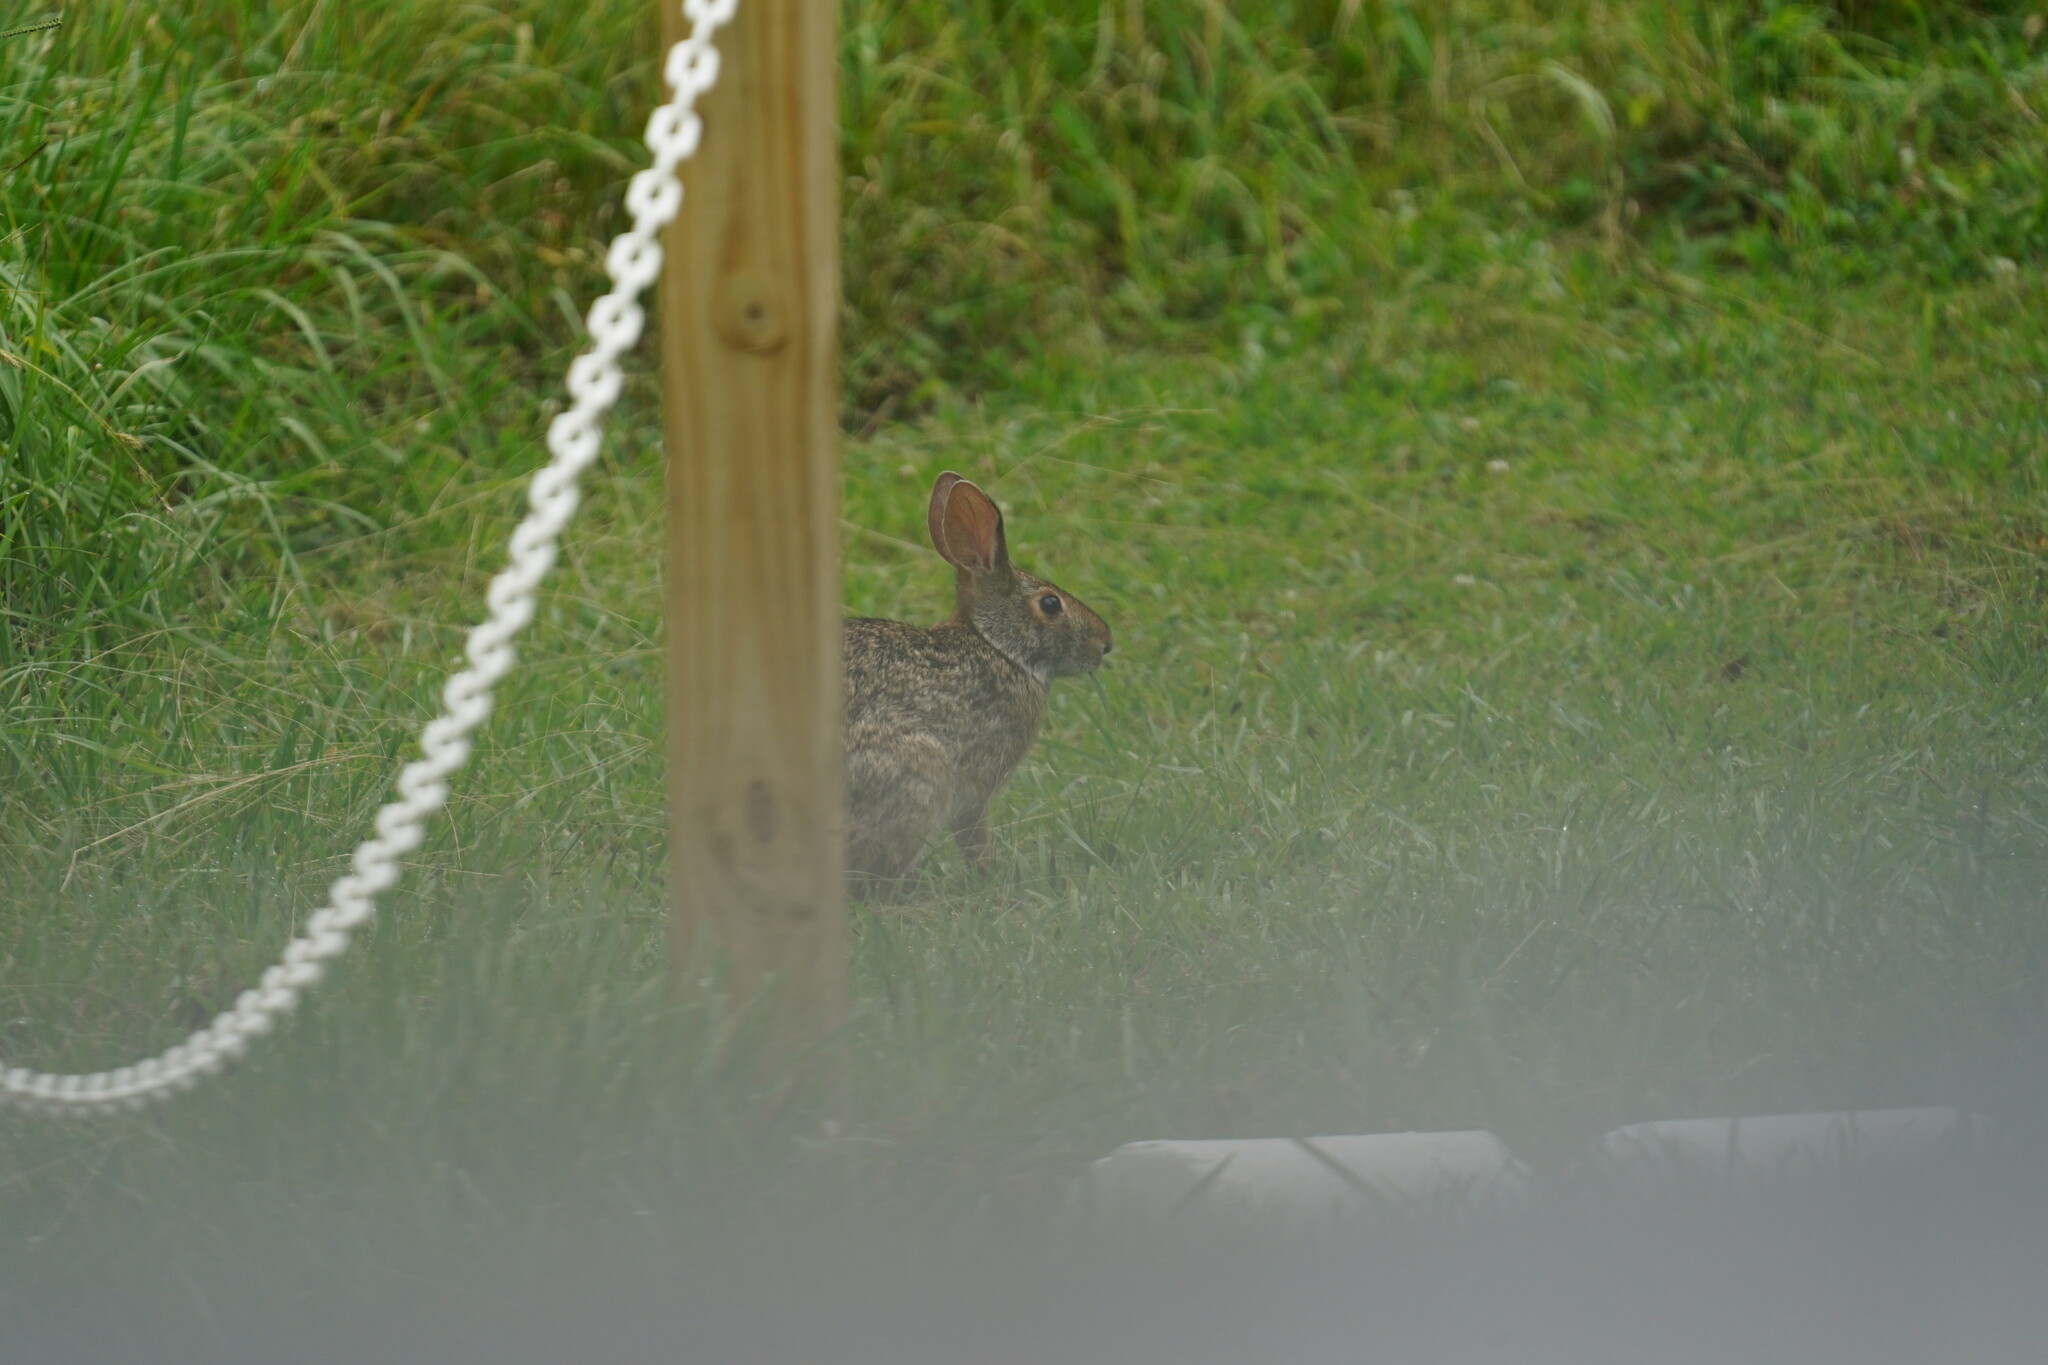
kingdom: Animalia
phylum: Chordata
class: Mammalia
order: Lagomorpha
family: Leporidae
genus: Sylvilagus
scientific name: Sylvilagus aquaticus
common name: Swamp rabbit
